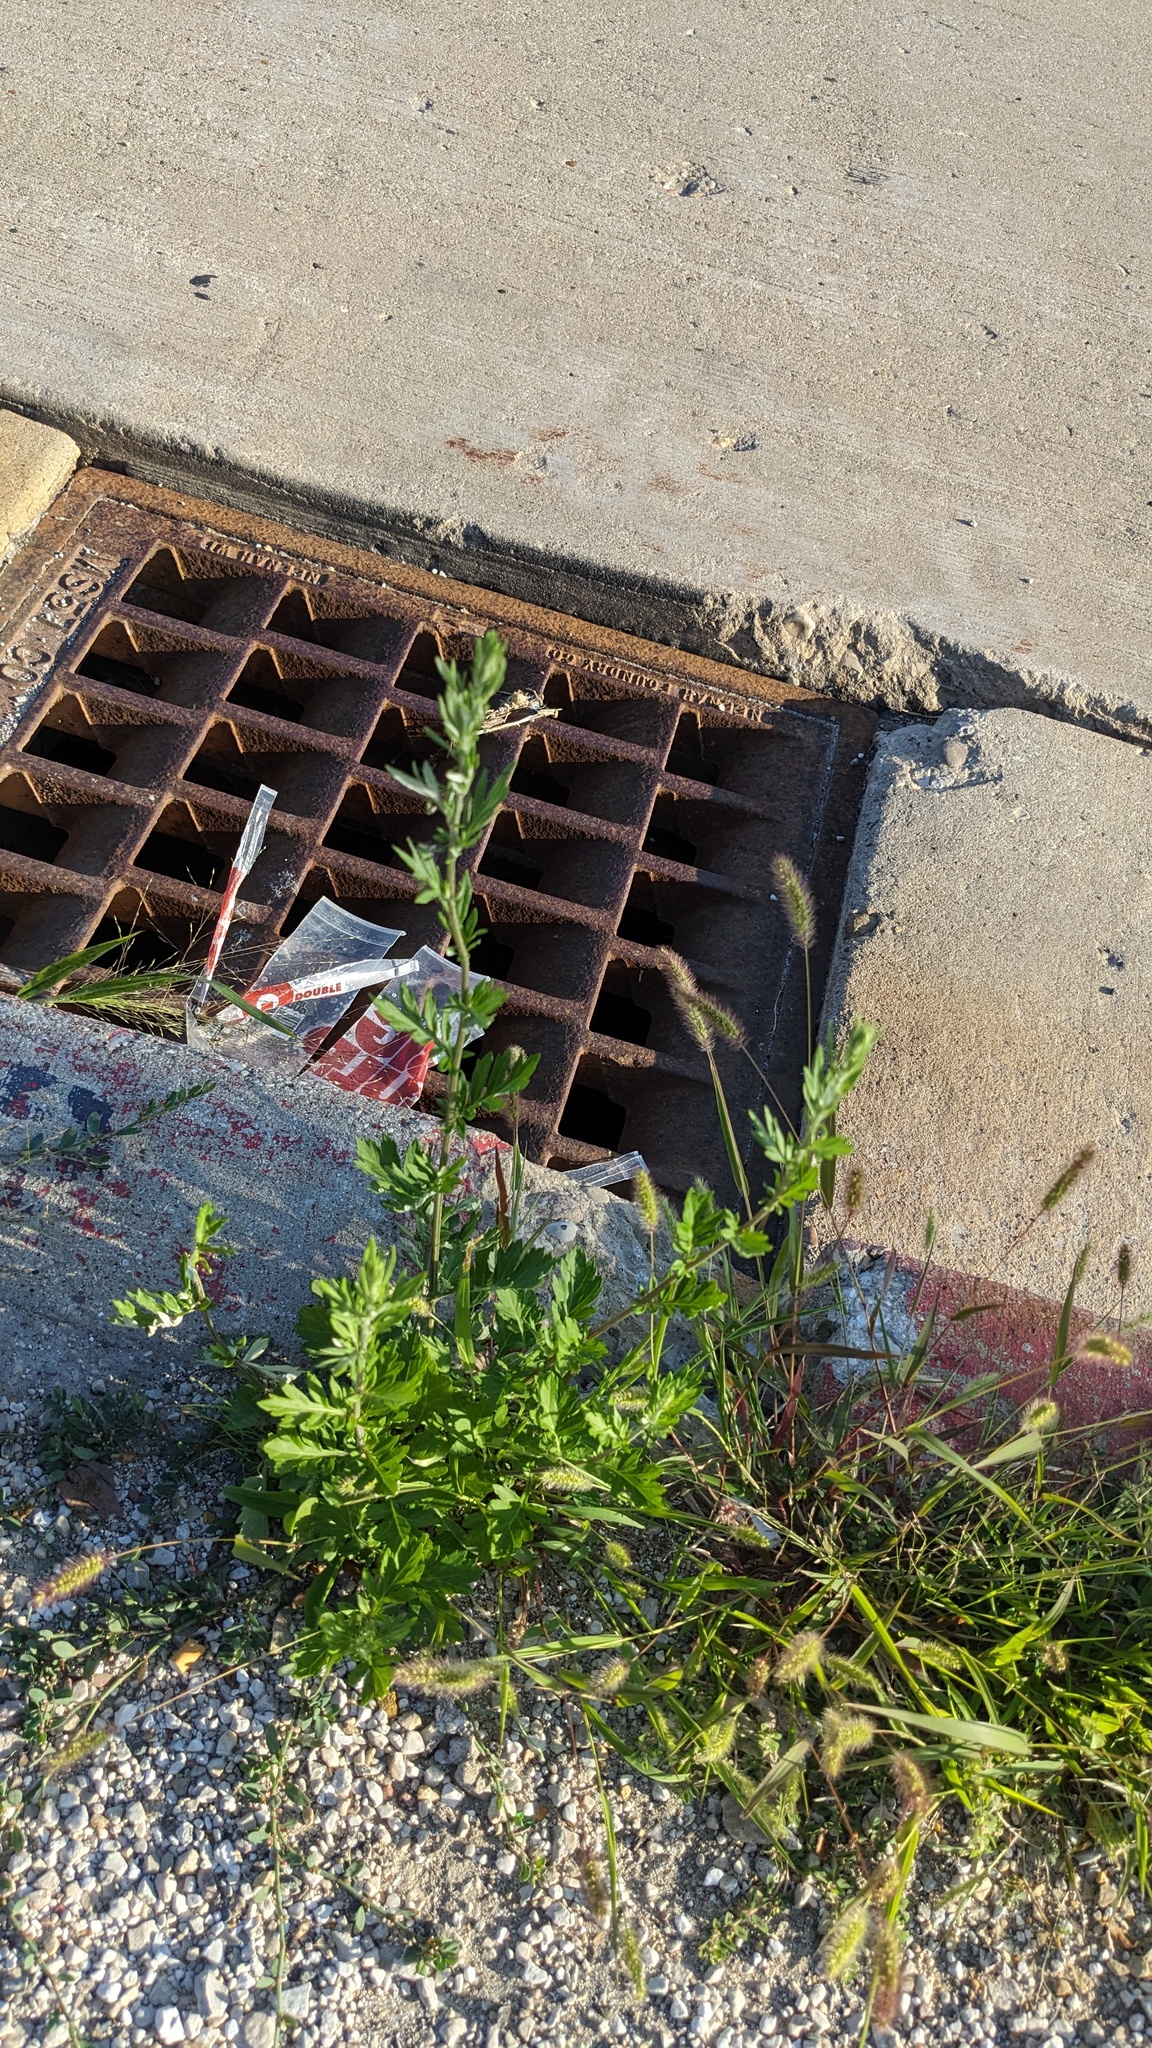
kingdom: Plantae
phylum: Tracheophyta
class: Magnoliopsida
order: Asterales
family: Asteraceae
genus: Artemisia
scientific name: Artemisia vulgaris
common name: Mugwort
